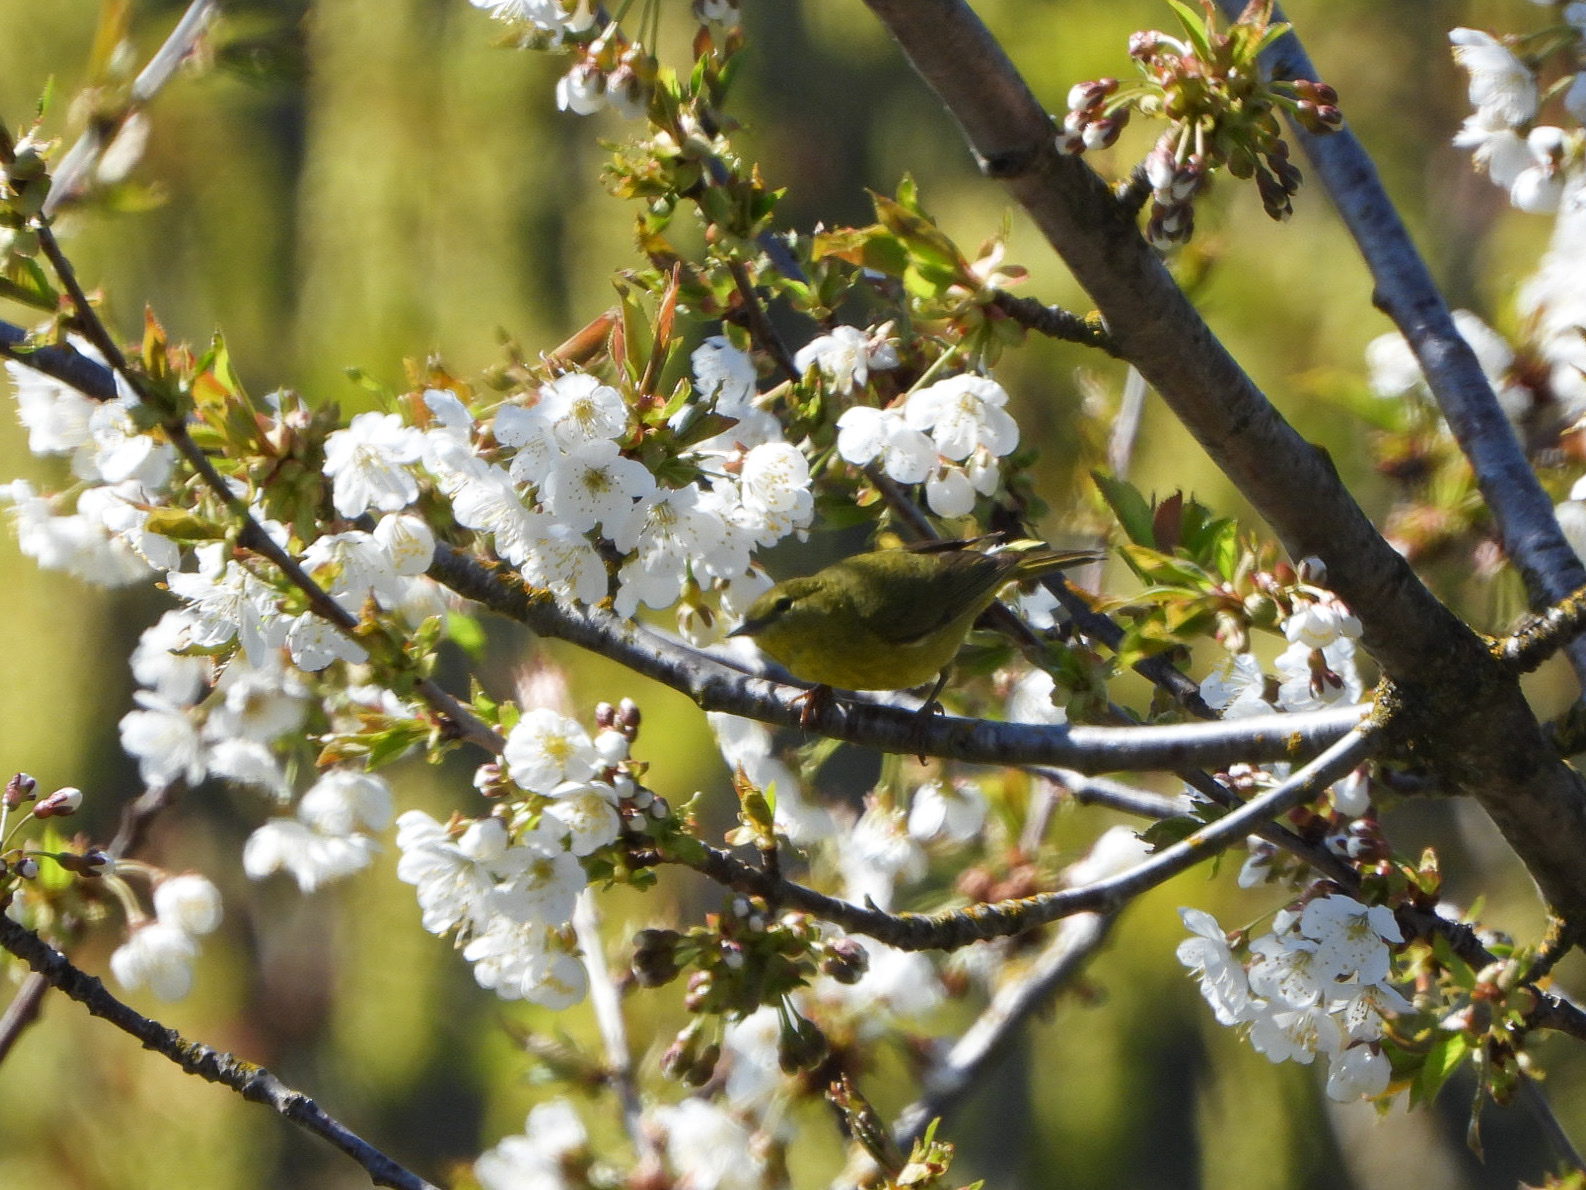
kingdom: Animalia
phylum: Chordata
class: Aves
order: Passeriformes
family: Parulidae
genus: Leiothlypis
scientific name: Leiothlypis celata
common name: Orange-crowned warbler
